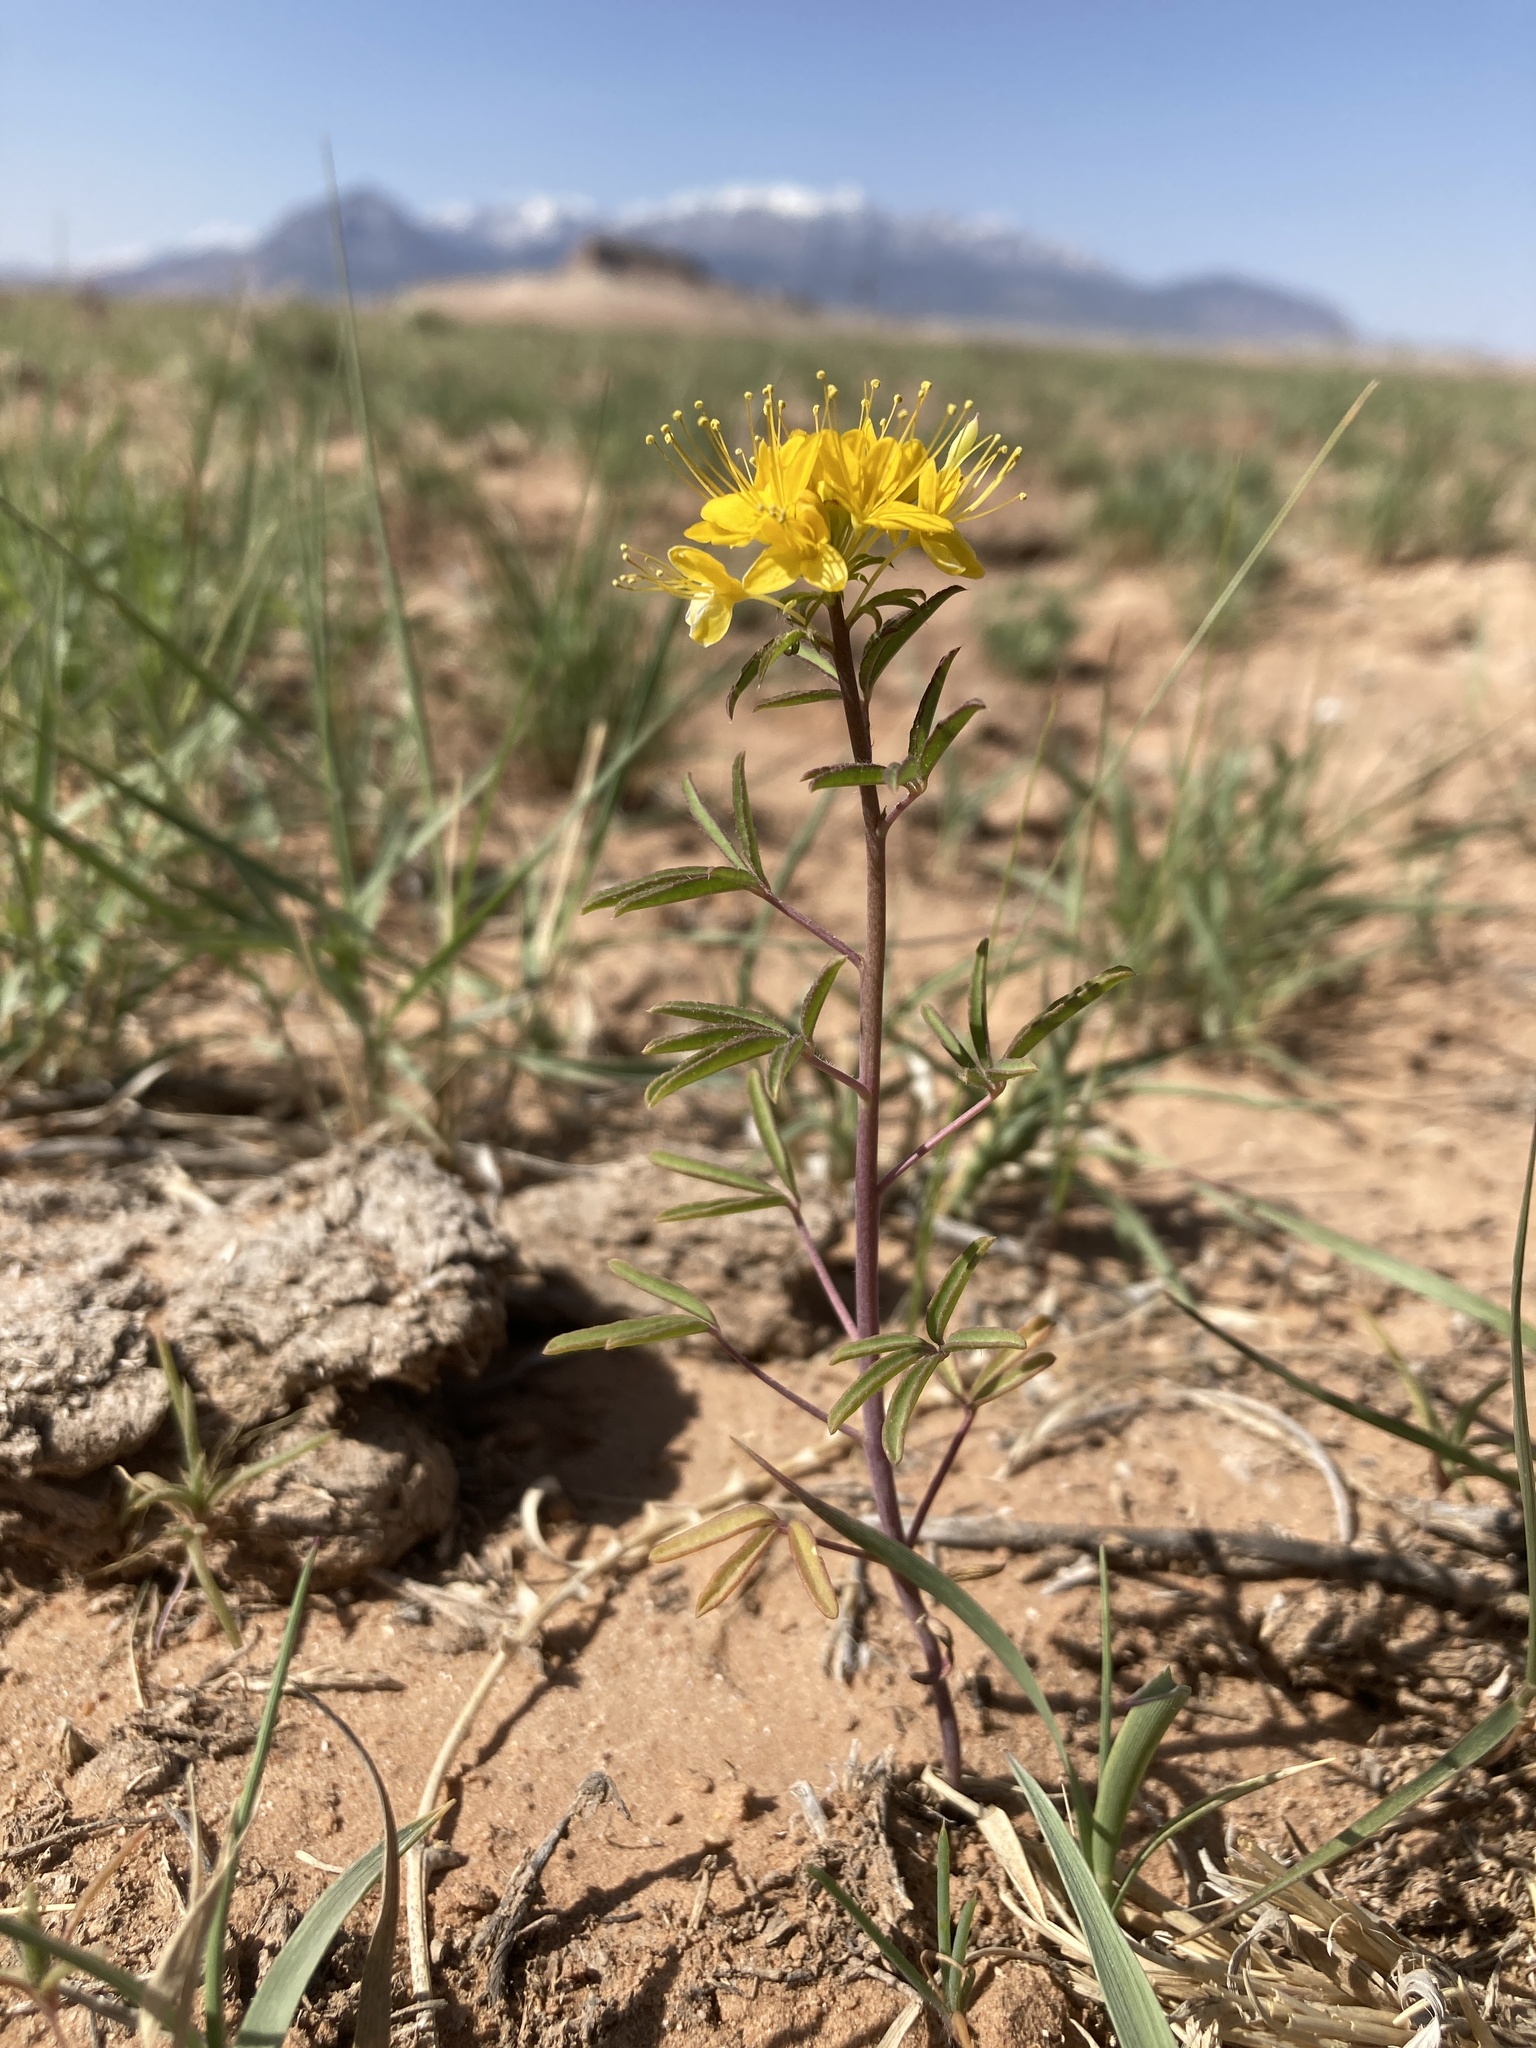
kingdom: Plantae
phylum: Tracheophyta
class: Magnoliopsida
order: Brassicales
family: Cleomaceae
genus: Cleomella
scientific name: Cleomella lutea
